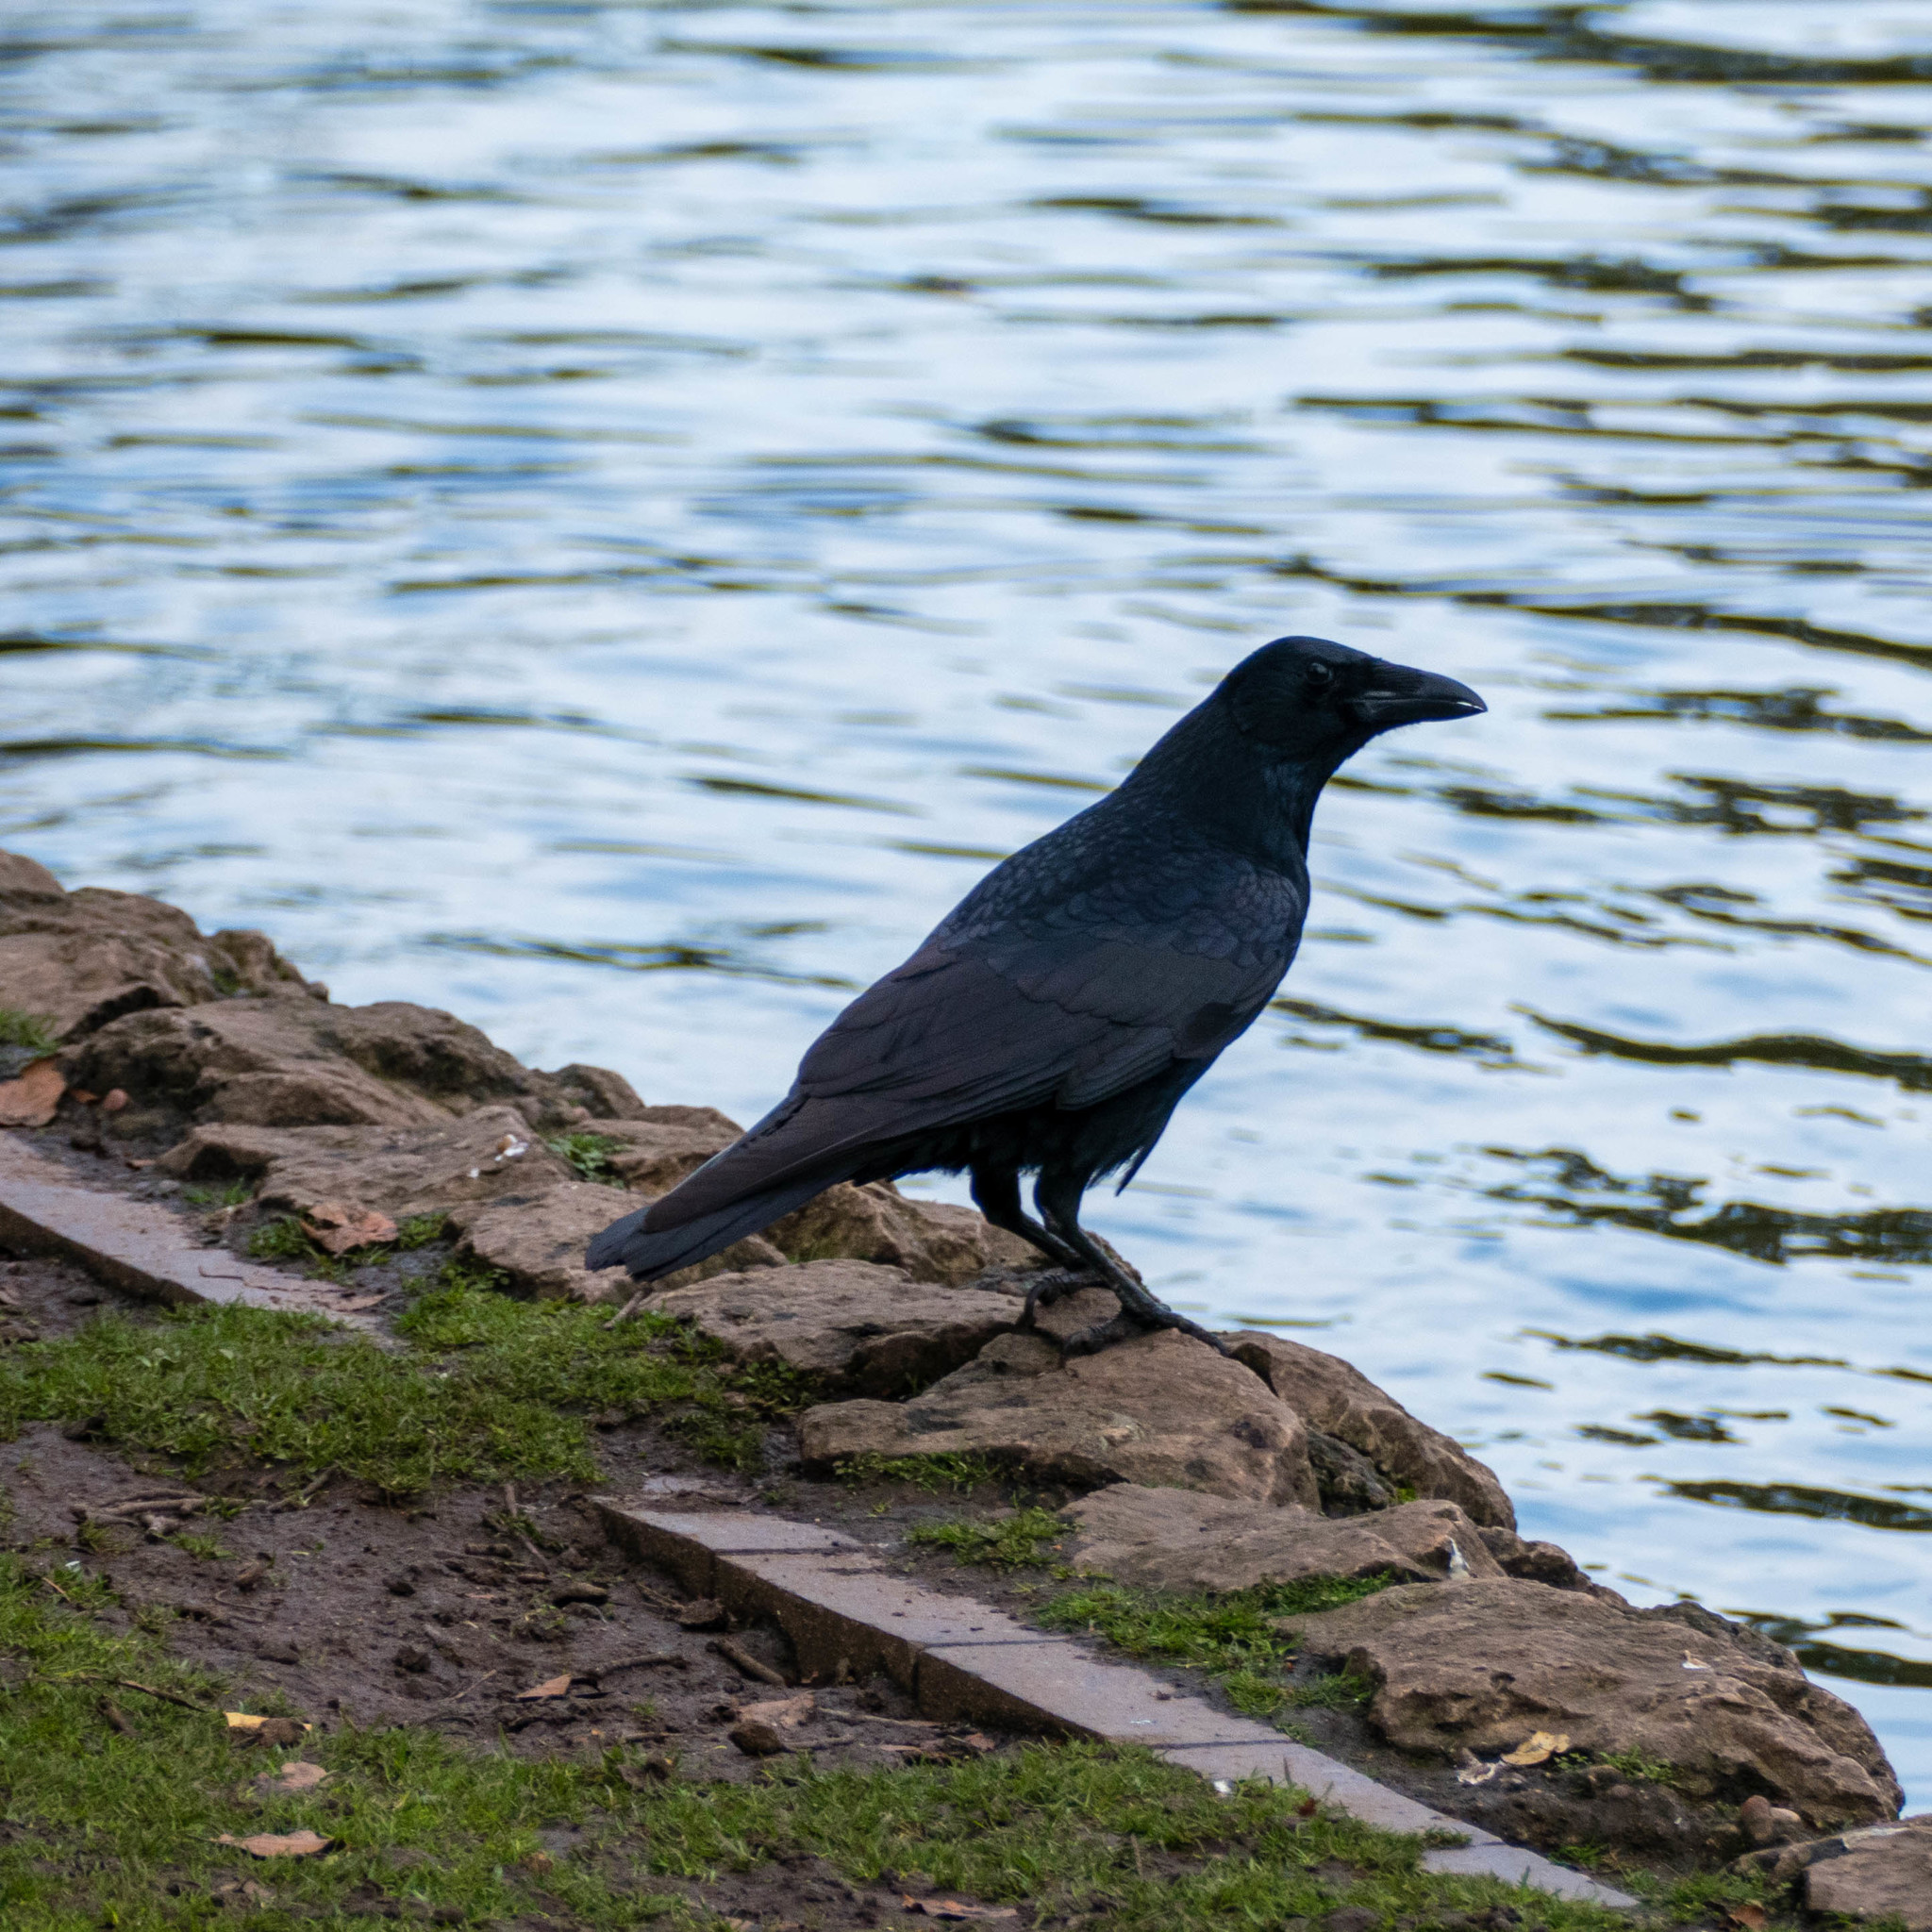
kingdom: Animalia
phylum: Chordata
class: Aves
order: Passeriformes
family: Corvidae
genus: Corvus
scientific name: Corvus corone
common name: Carrion crow
